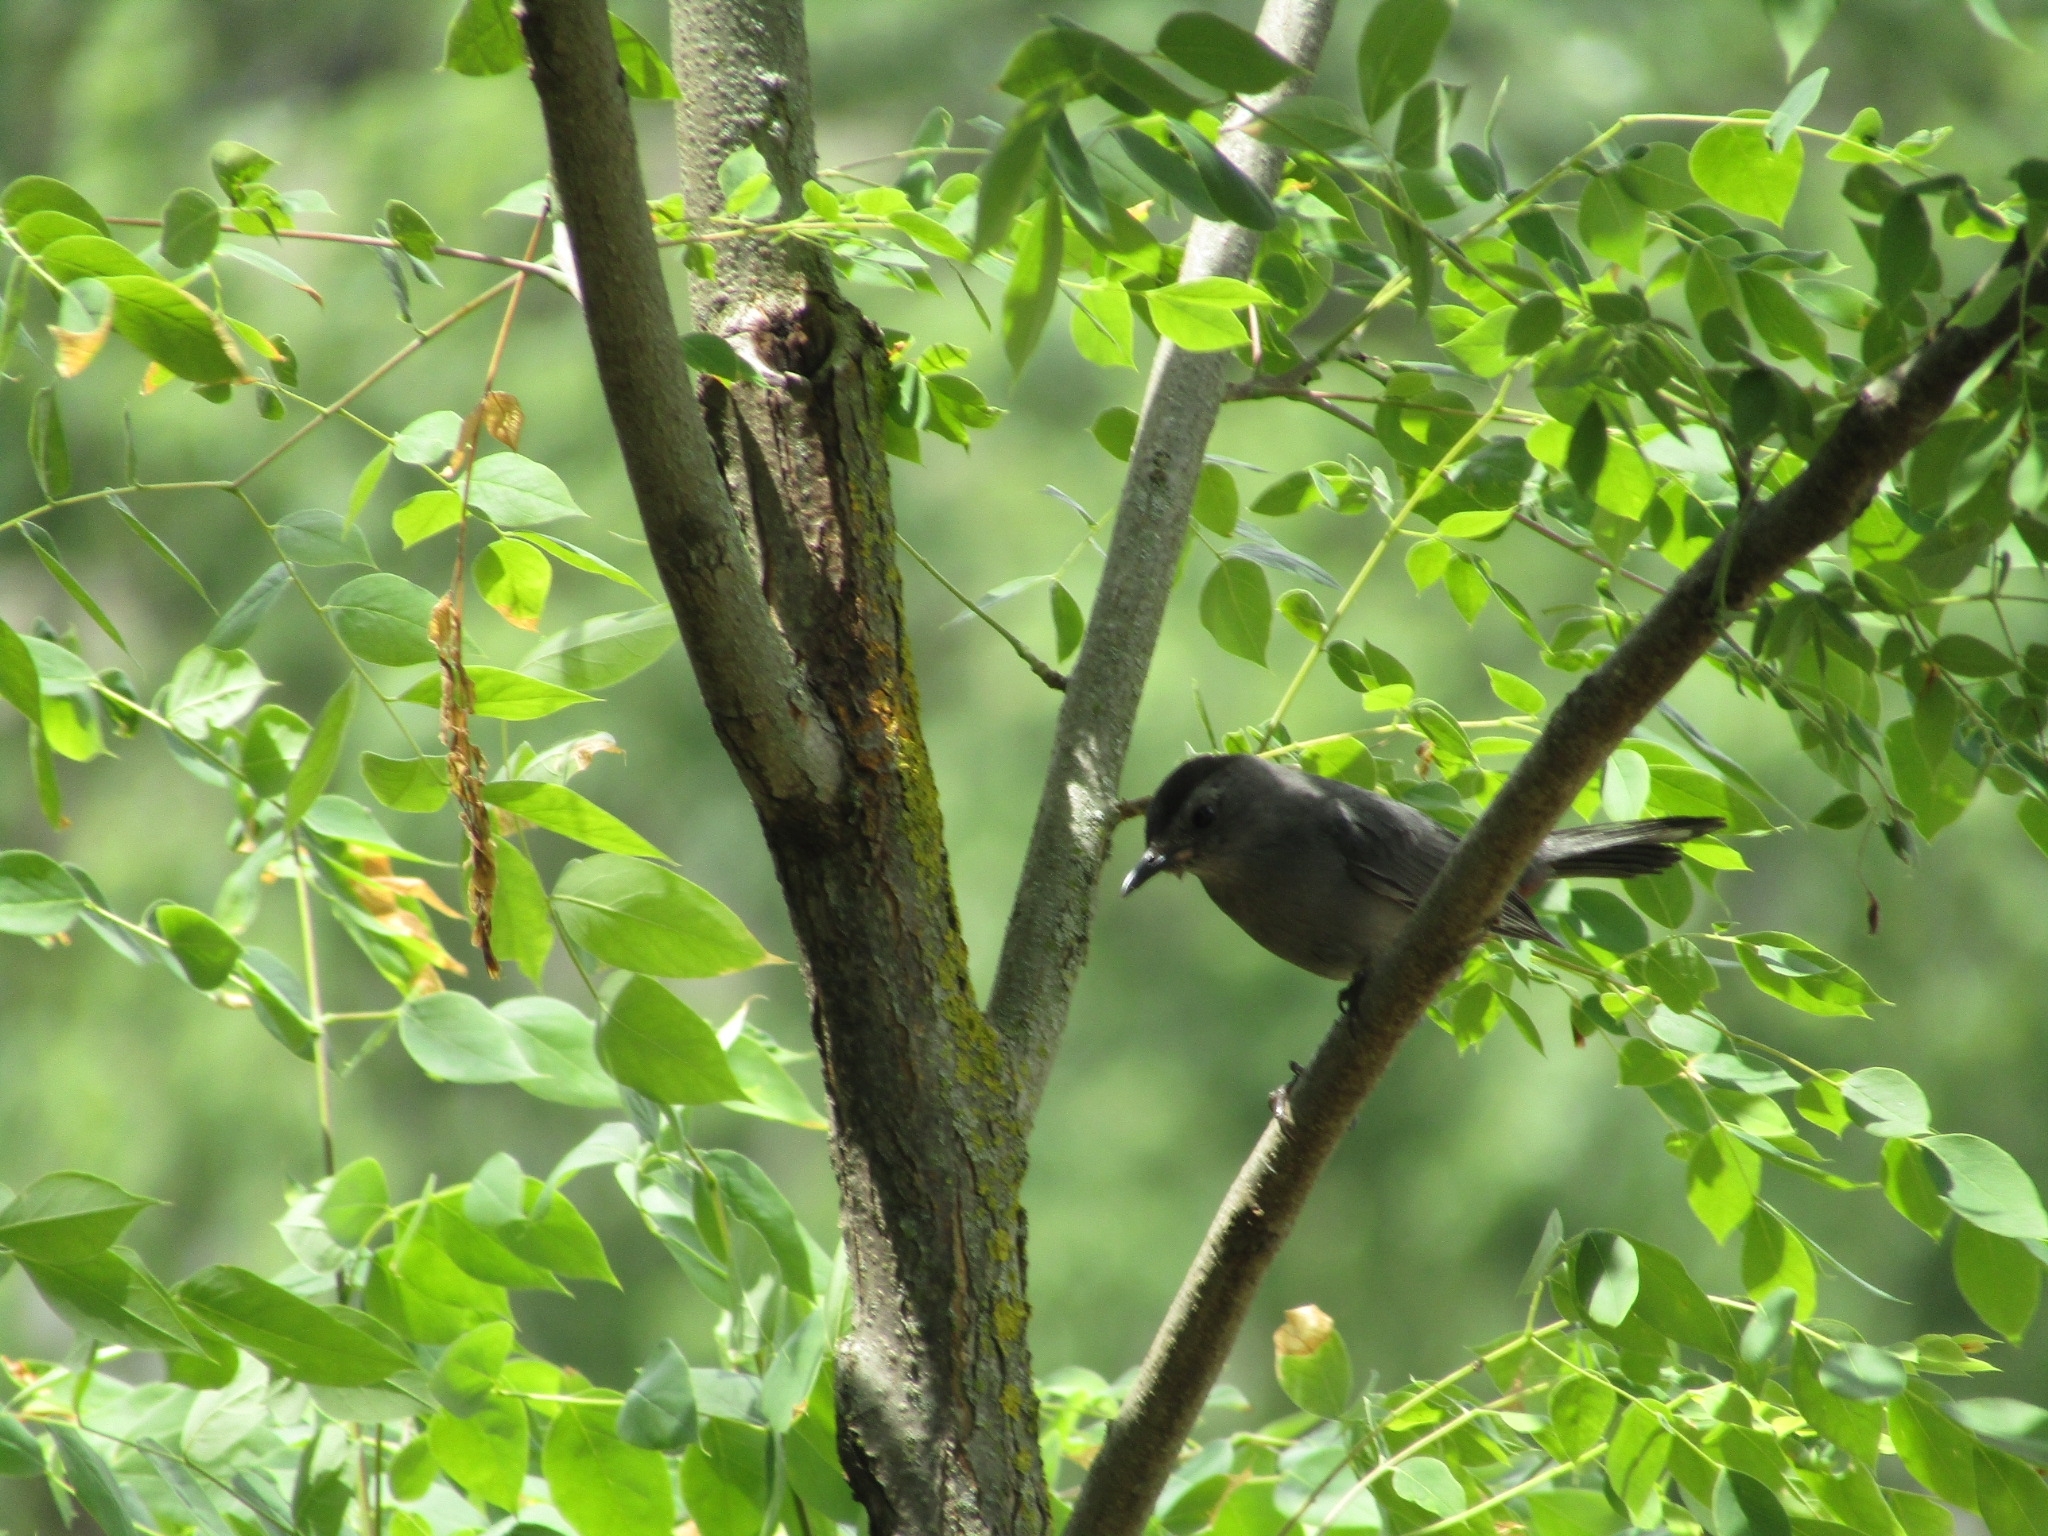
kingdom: Animalia
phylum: Chordata
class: Aves
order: Passeriformes
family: Mimidae
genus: Dumetella
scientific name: Dumetella carolinensis
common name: Gray catbird
